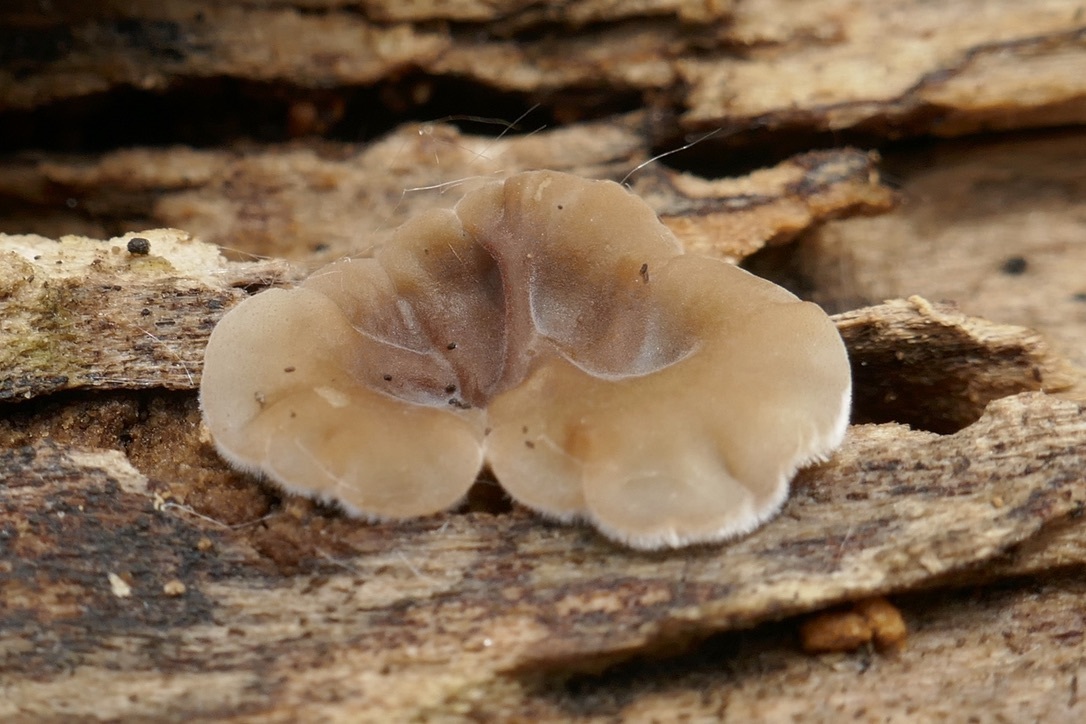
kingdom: Fungi
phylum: Basidiomycota
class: Agaricomycetes
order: Auriculariales
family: Auriculariaceae
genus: Auricularia
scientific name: Auricularia mesenterica
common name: Tripe fungus
